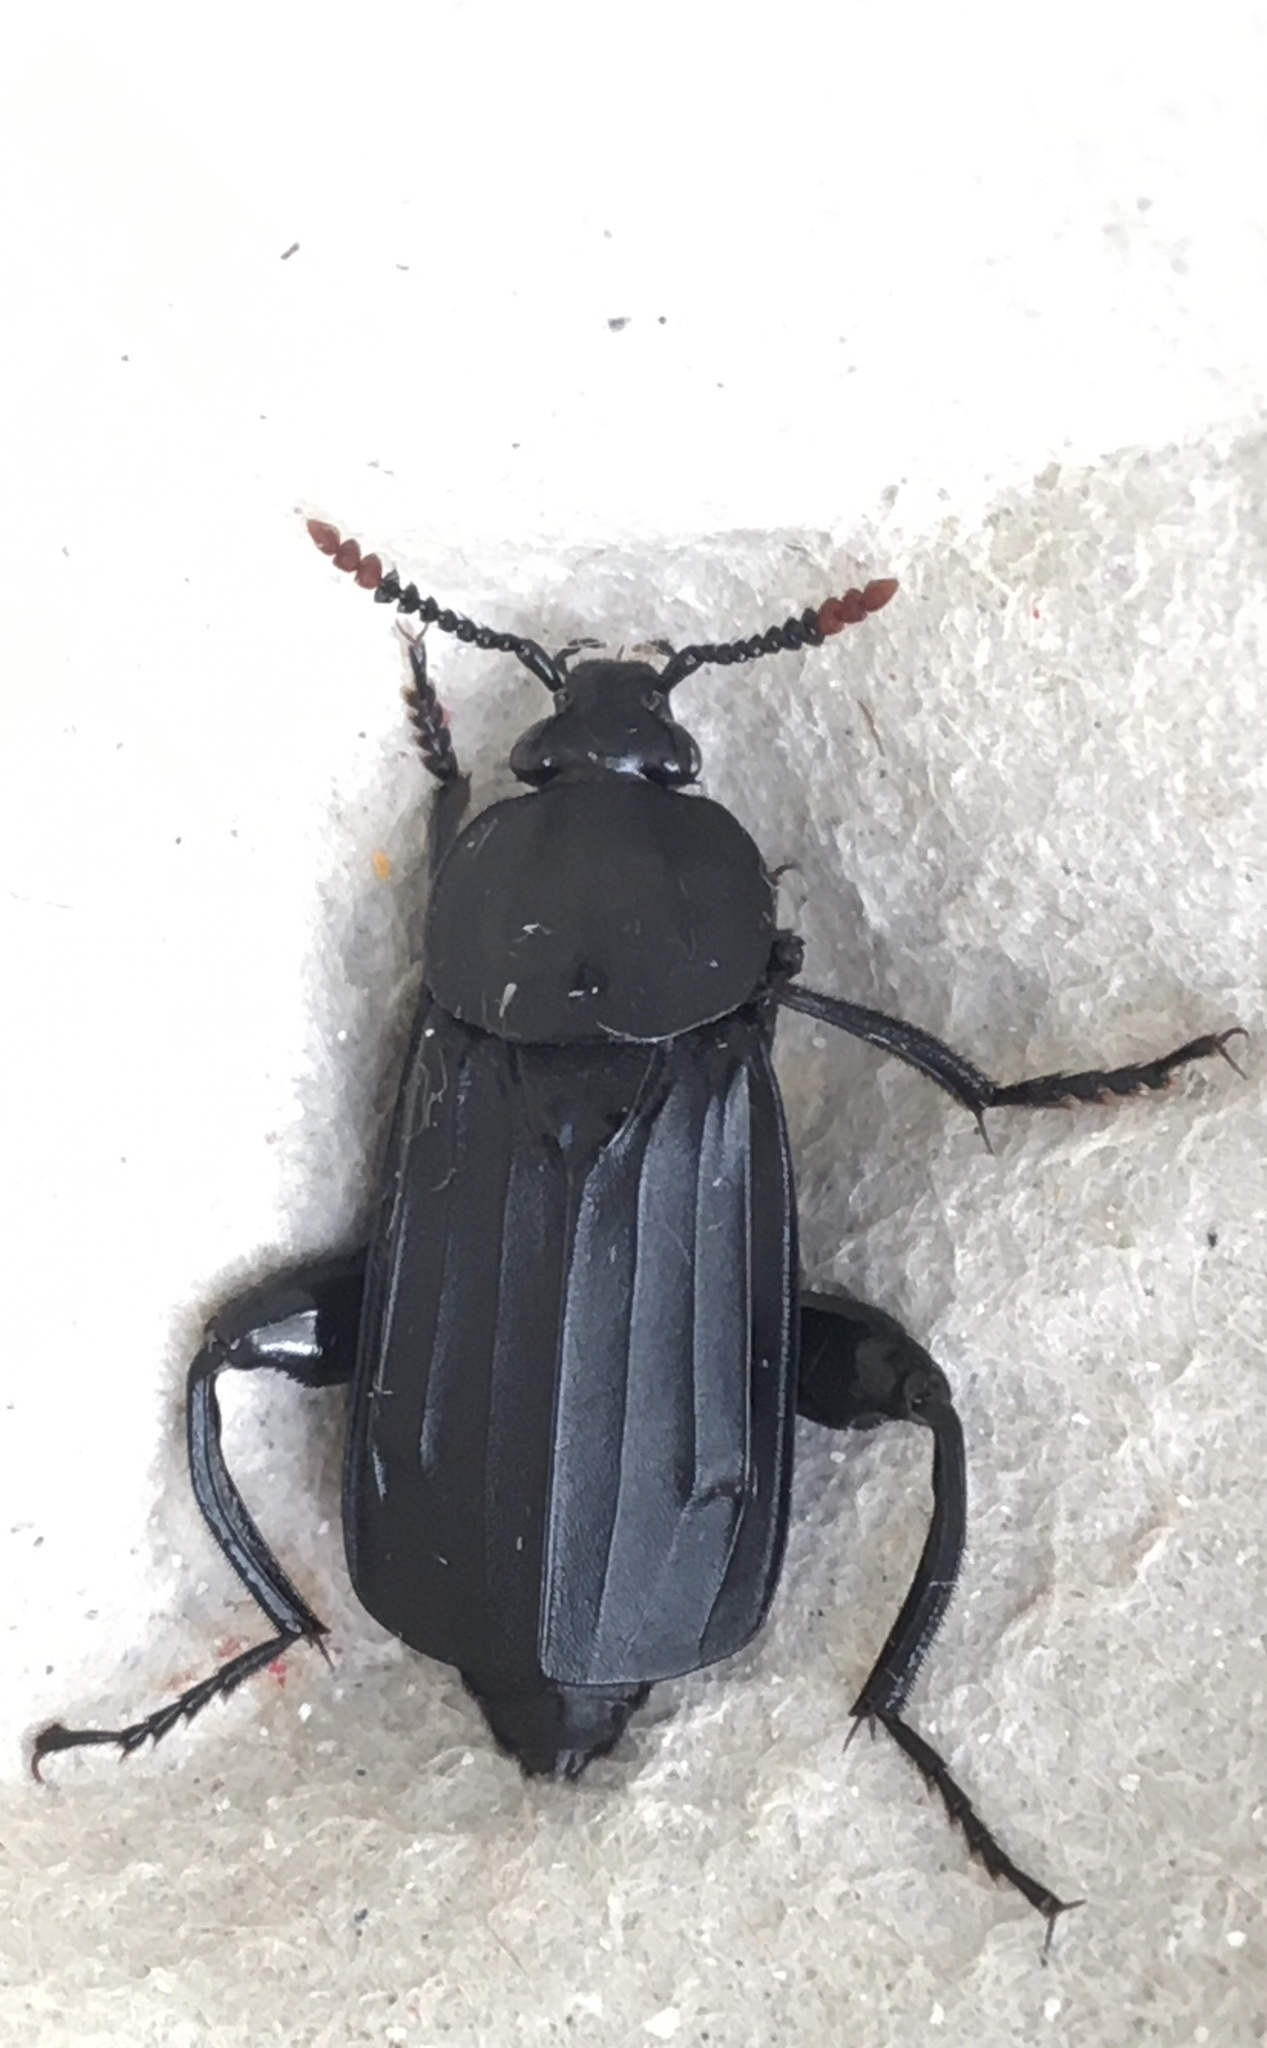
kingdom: Animalia
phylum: Arthropoda
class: Insecta
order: Coleoptera
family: Staphylinidae
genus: Necrodes
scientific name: Necrodes littoralis
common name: Shore sexton beetle
